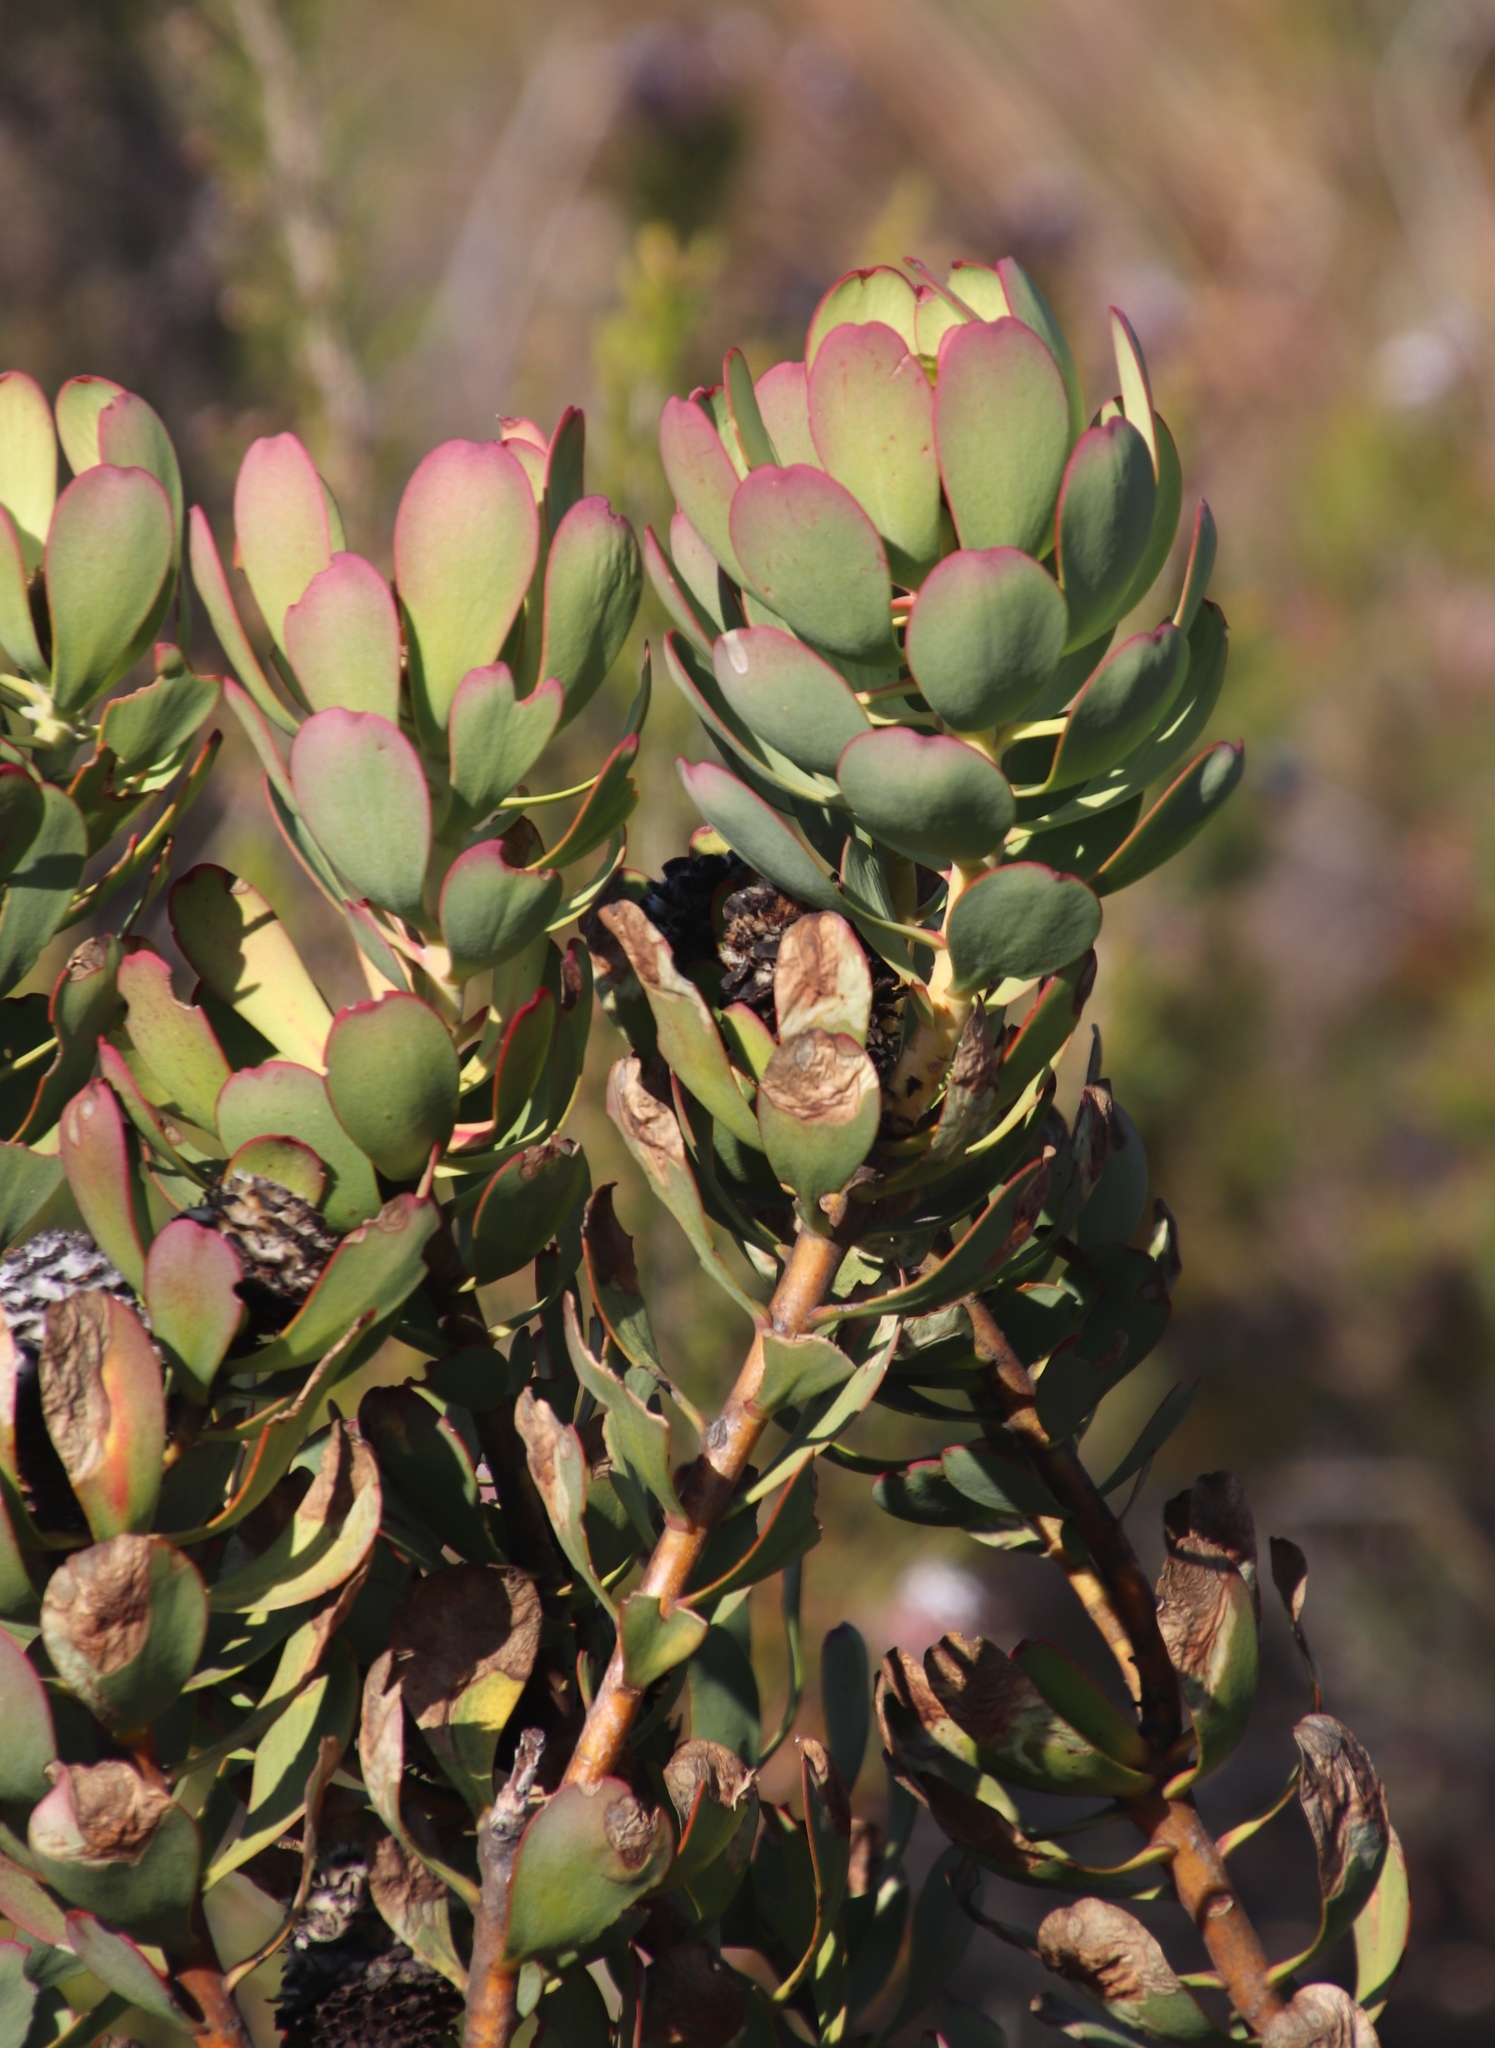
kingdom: Plantae
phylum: Tracheophyta
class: Magnoliopsida
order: Proteales
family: Proteaceae
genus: Leucadendron
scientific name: Leucadendron arcuatum
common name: Red-edge conebush
